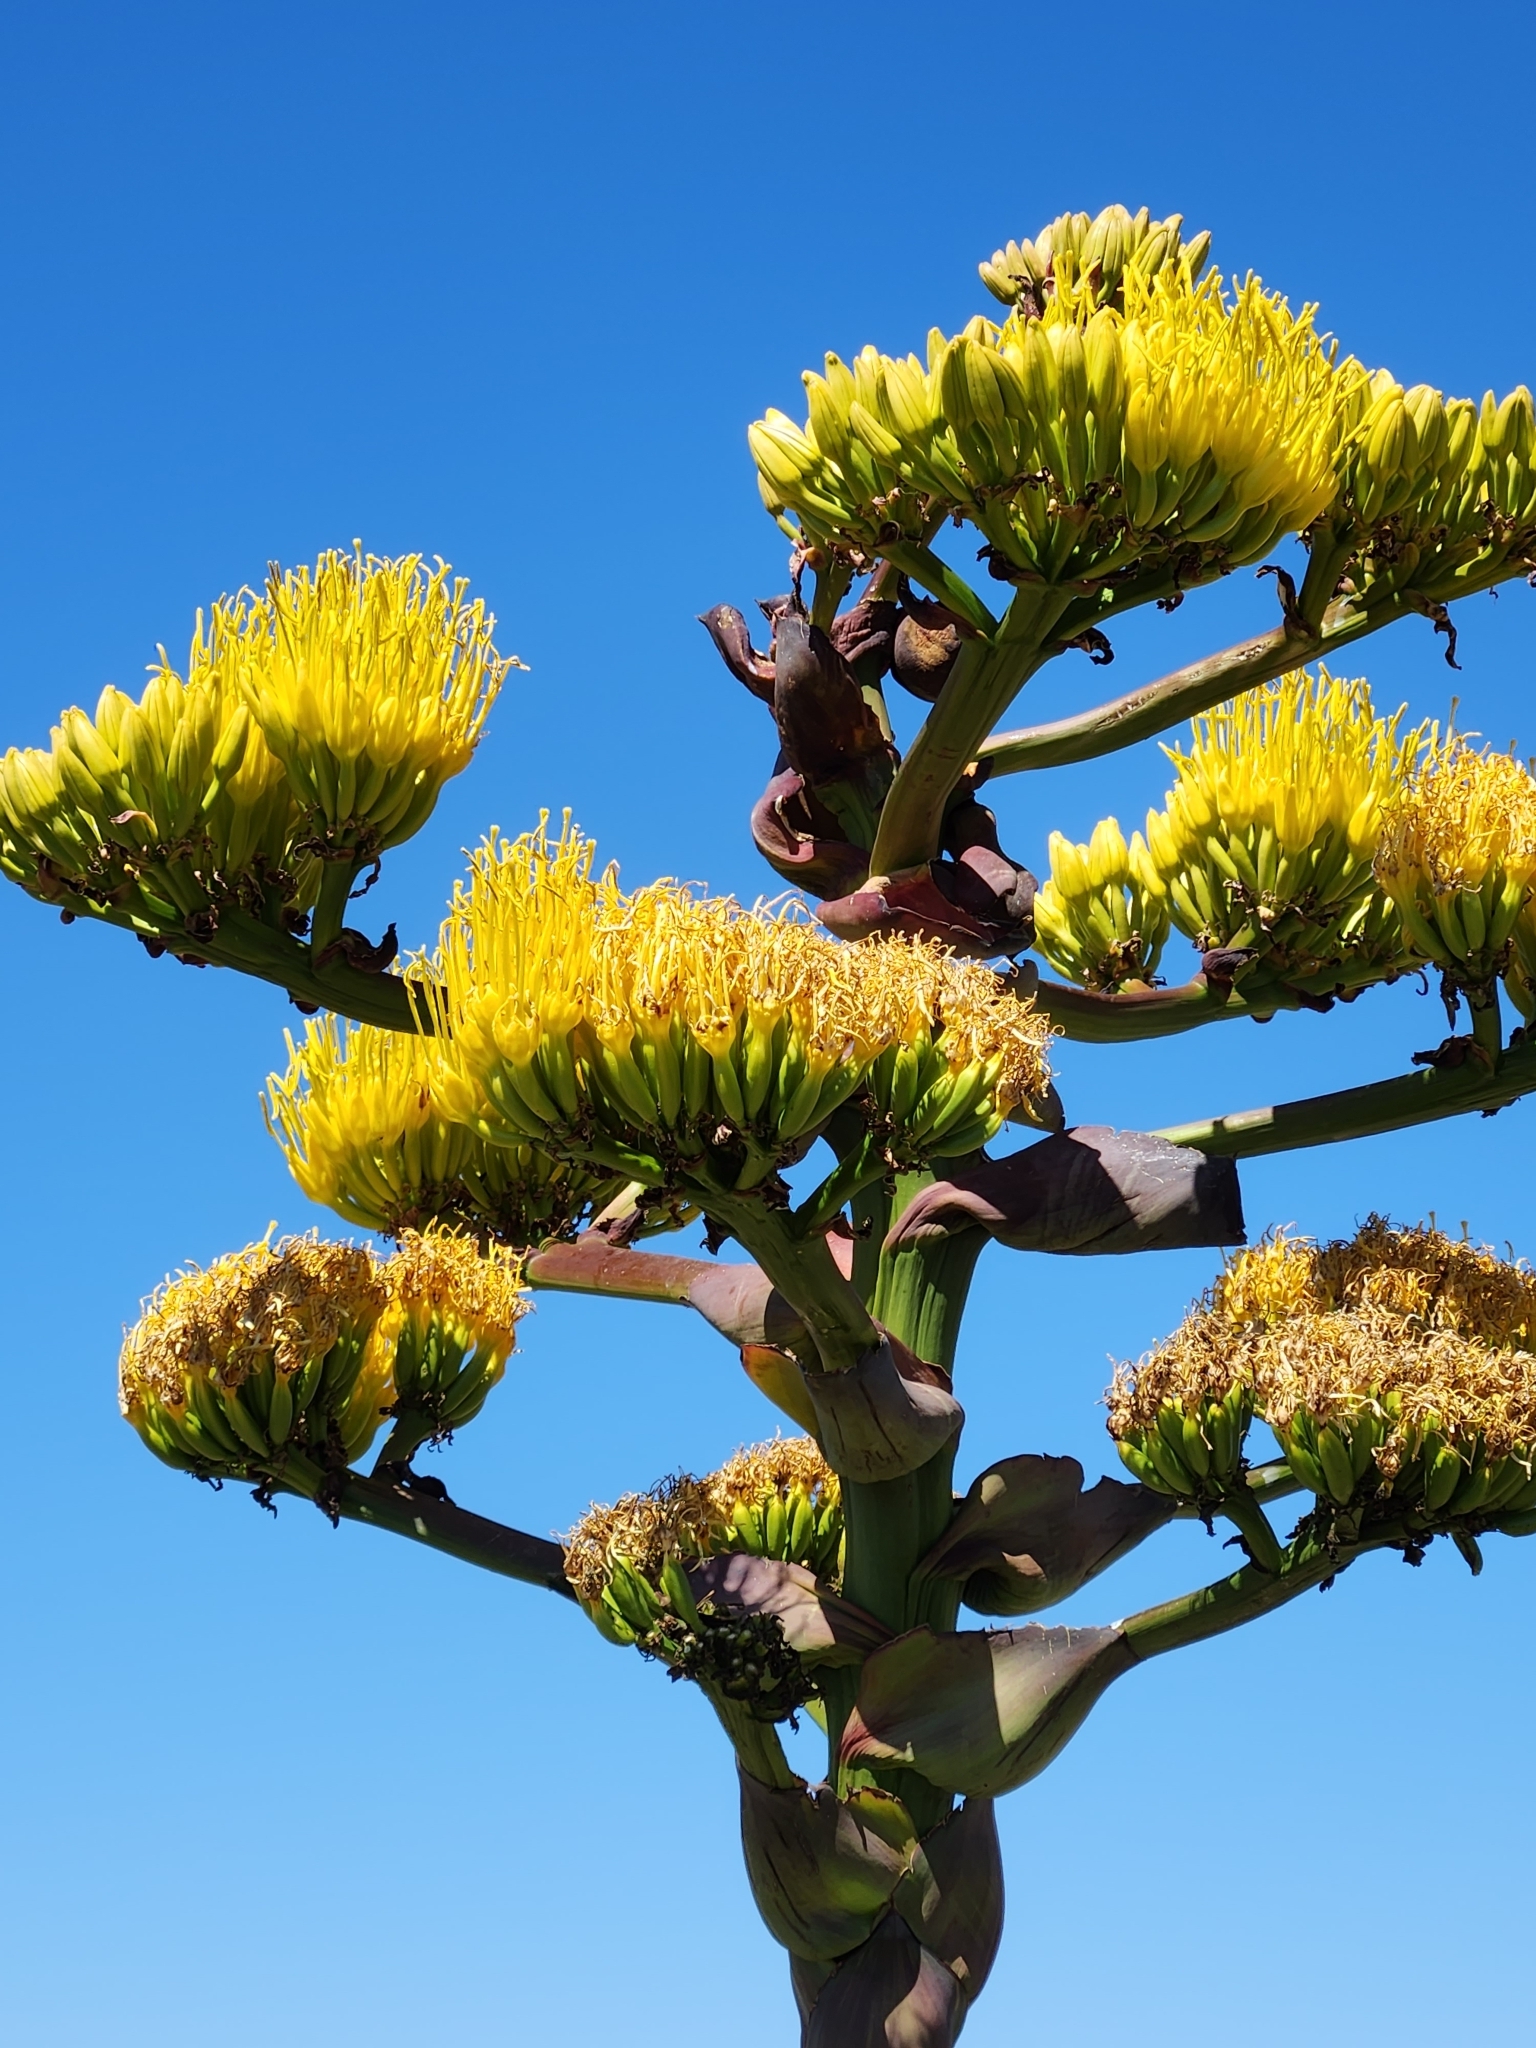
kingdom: Plantae
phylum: Tracheophyta
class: Liliopsida
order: Asparagales
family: Asparagaceae
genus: Agave
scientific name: Agave shawii
